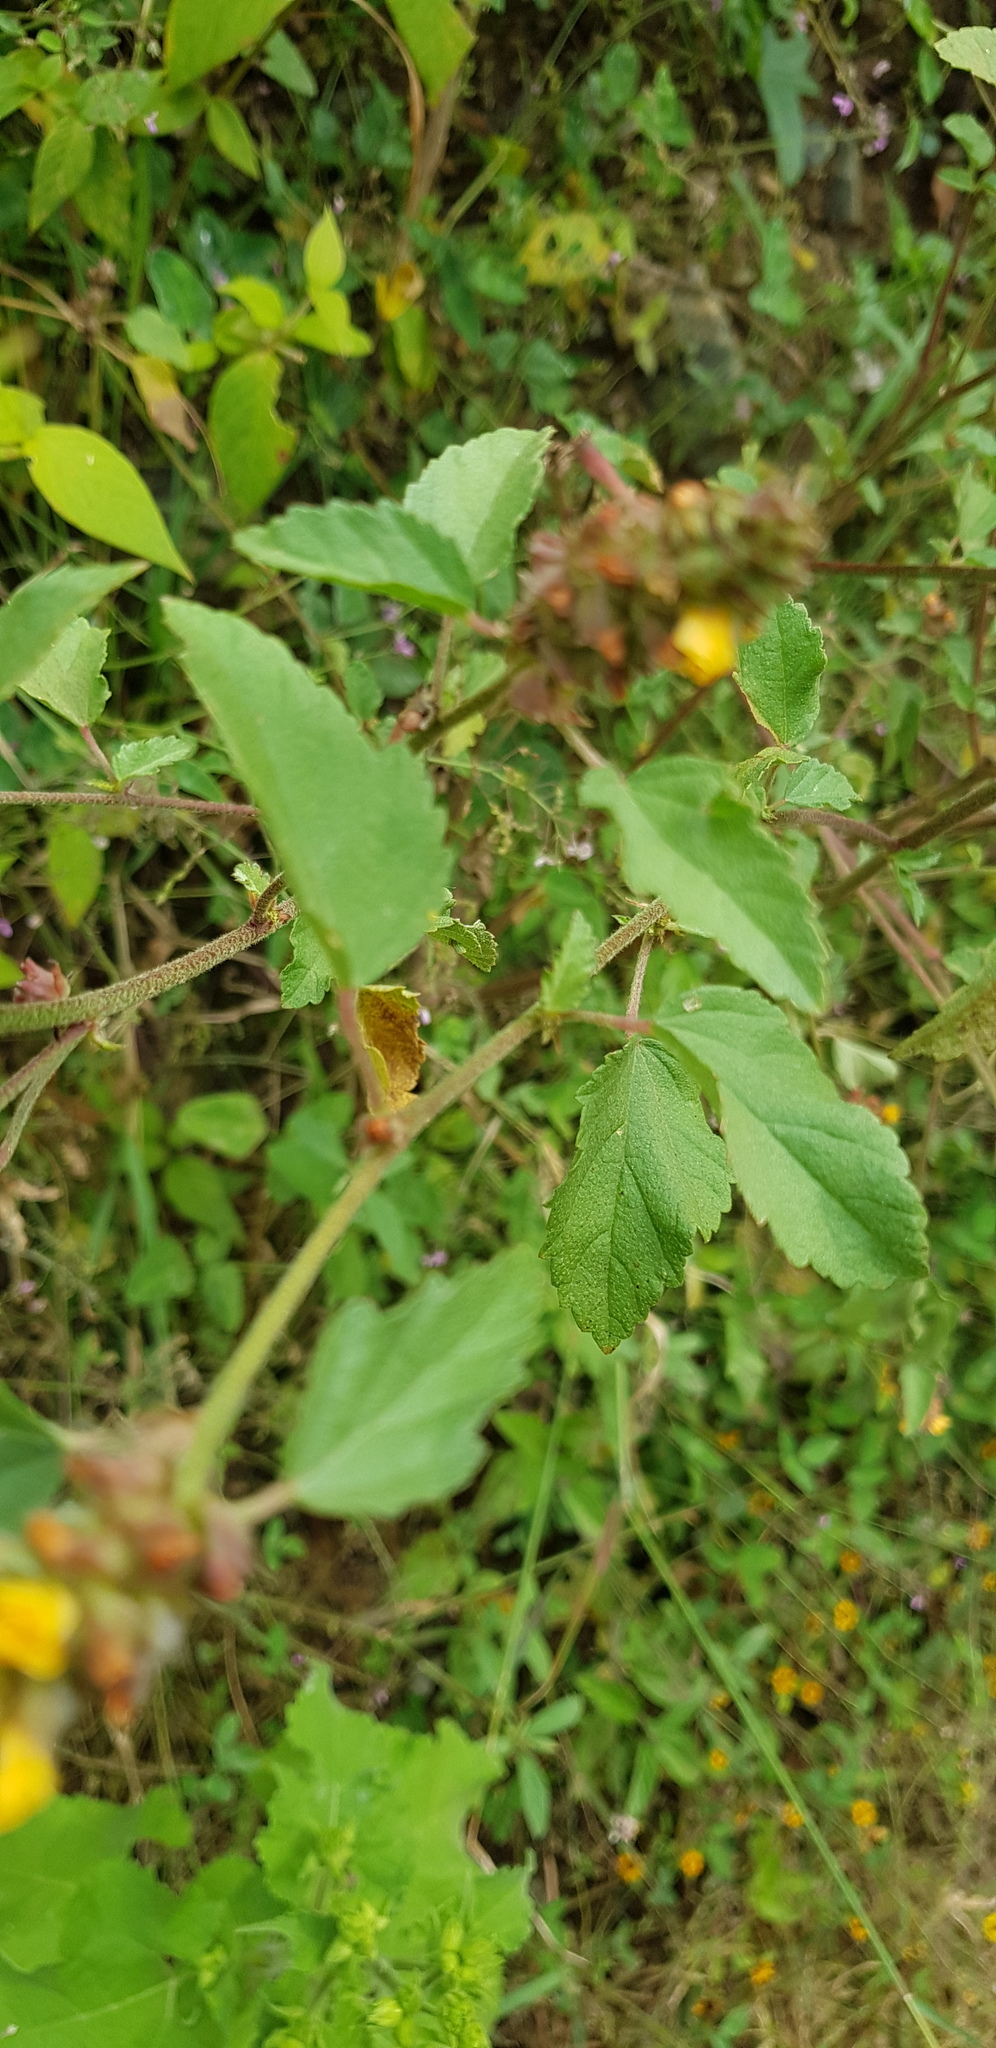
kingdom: Plantae
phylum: Tracheophyta
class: Magnoliopsida
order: Malvales
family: Malvaceae
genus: Malvastrum
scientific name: Malvastrum americanum
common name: Spiked malvastrum
